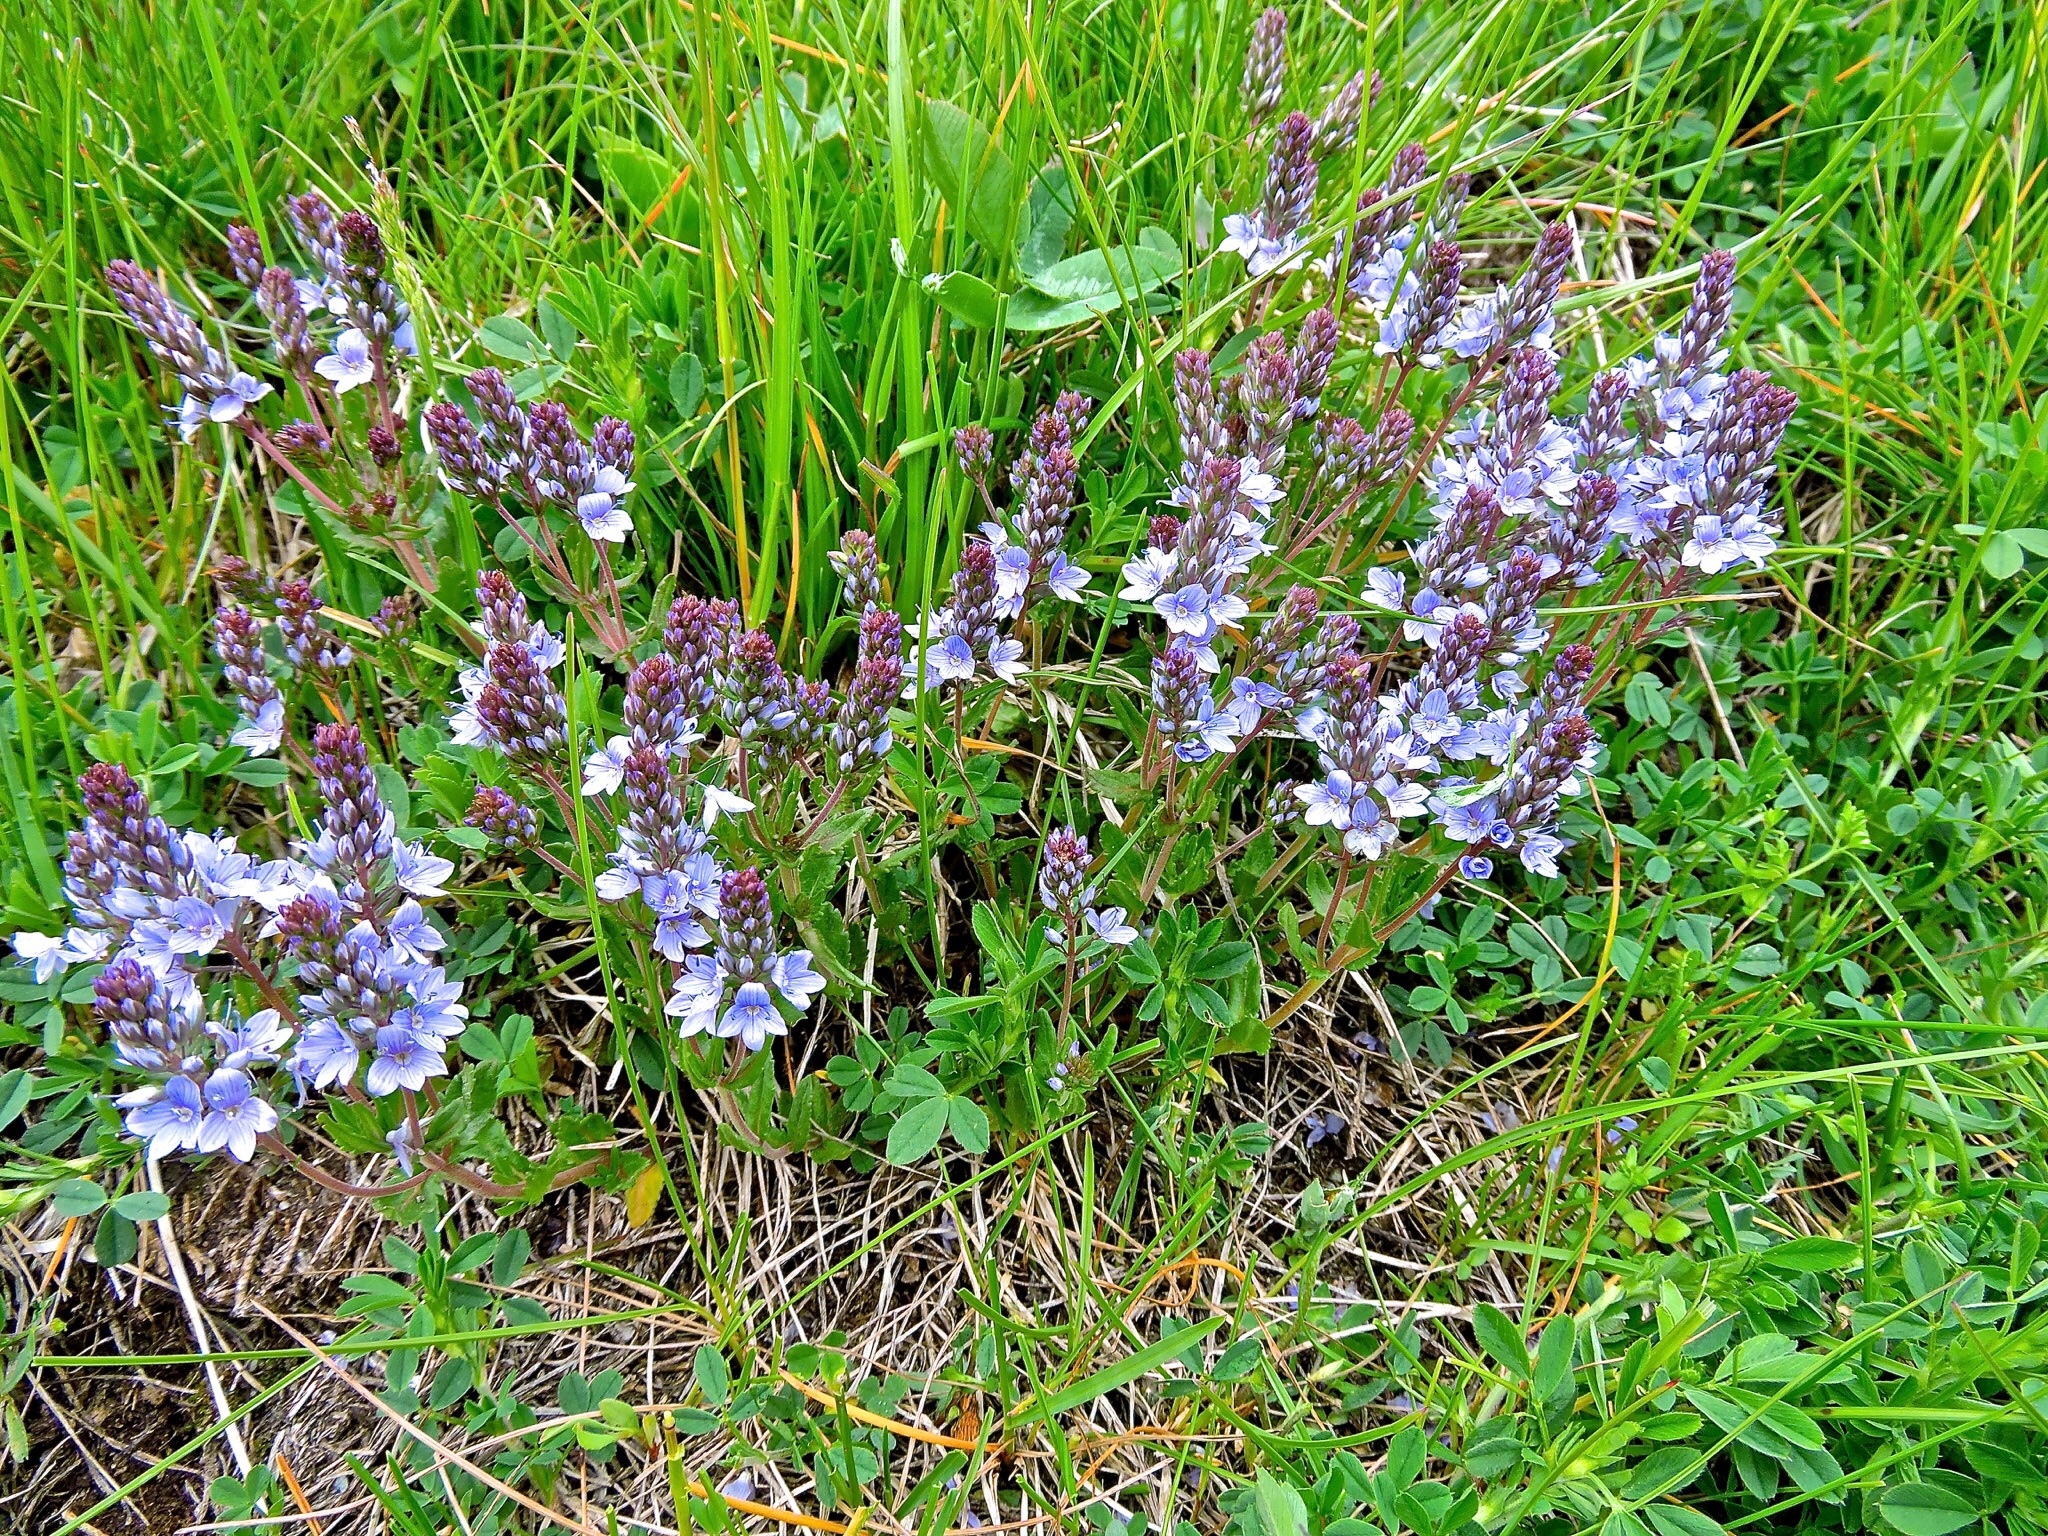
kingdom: Plantae
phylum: Tracheophyta
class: Magnoliopsida
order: Lamiales
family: Plantaginaceae
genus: Veronica
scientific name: Veronica prostrata
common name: Prostrate speedwell
